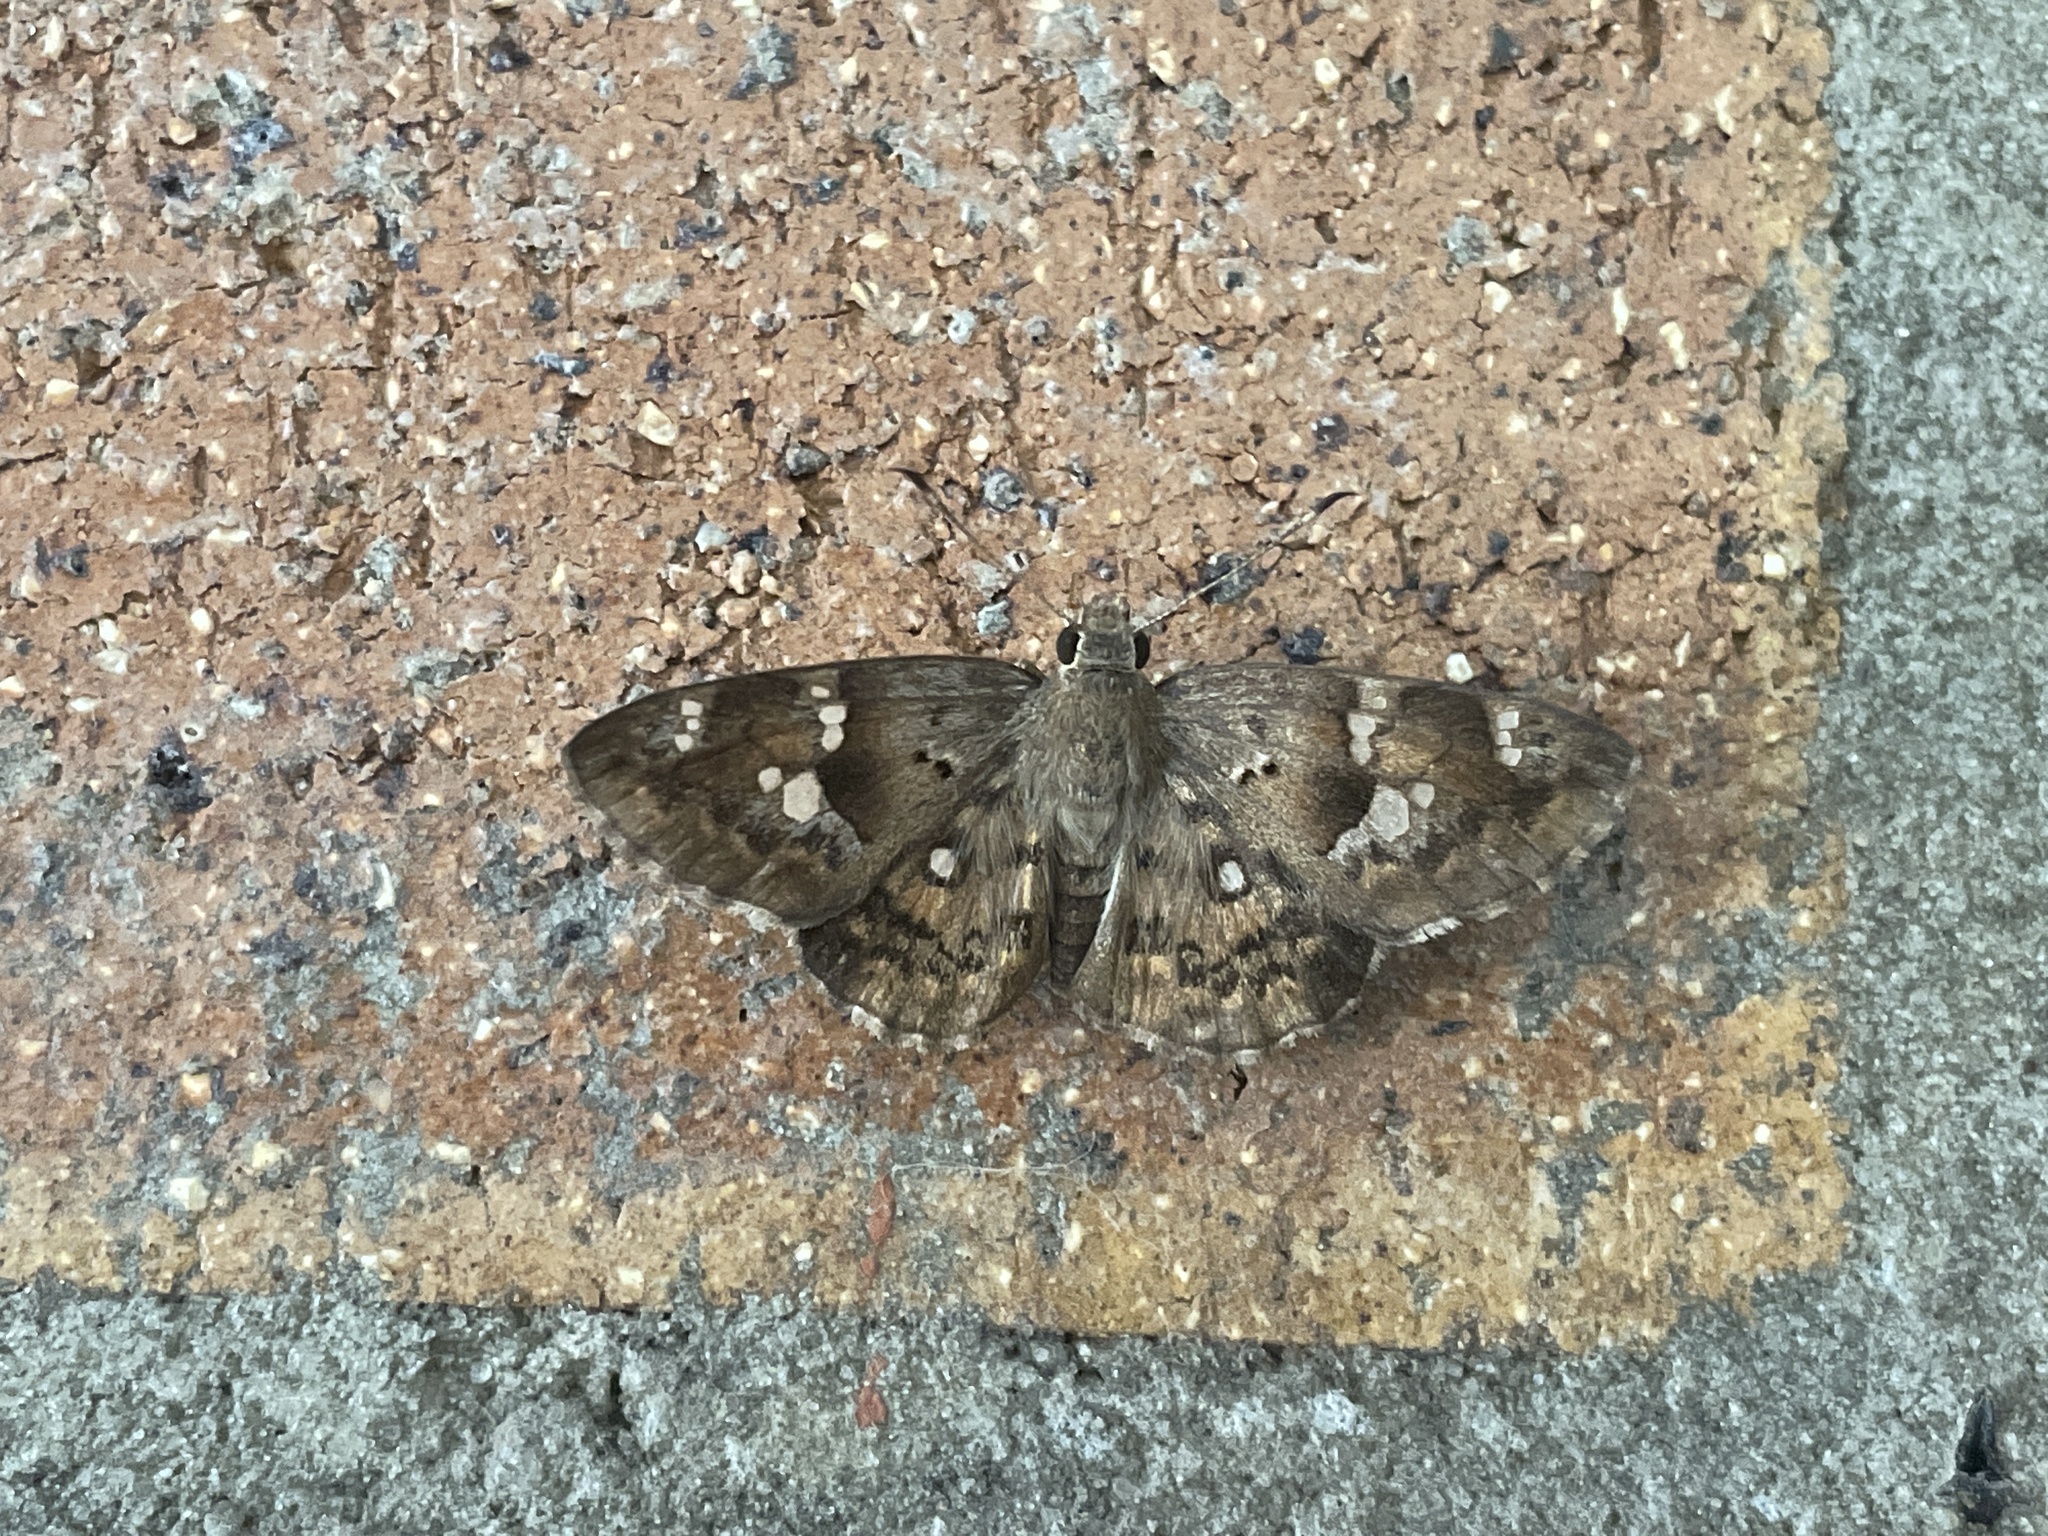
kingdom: Animalia
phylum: Arthropoda
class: Insecta
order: Lepidoptera
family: Hesperiidae
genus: Sarangesa
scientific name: Sarangesa motozi
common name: Forest elfin
